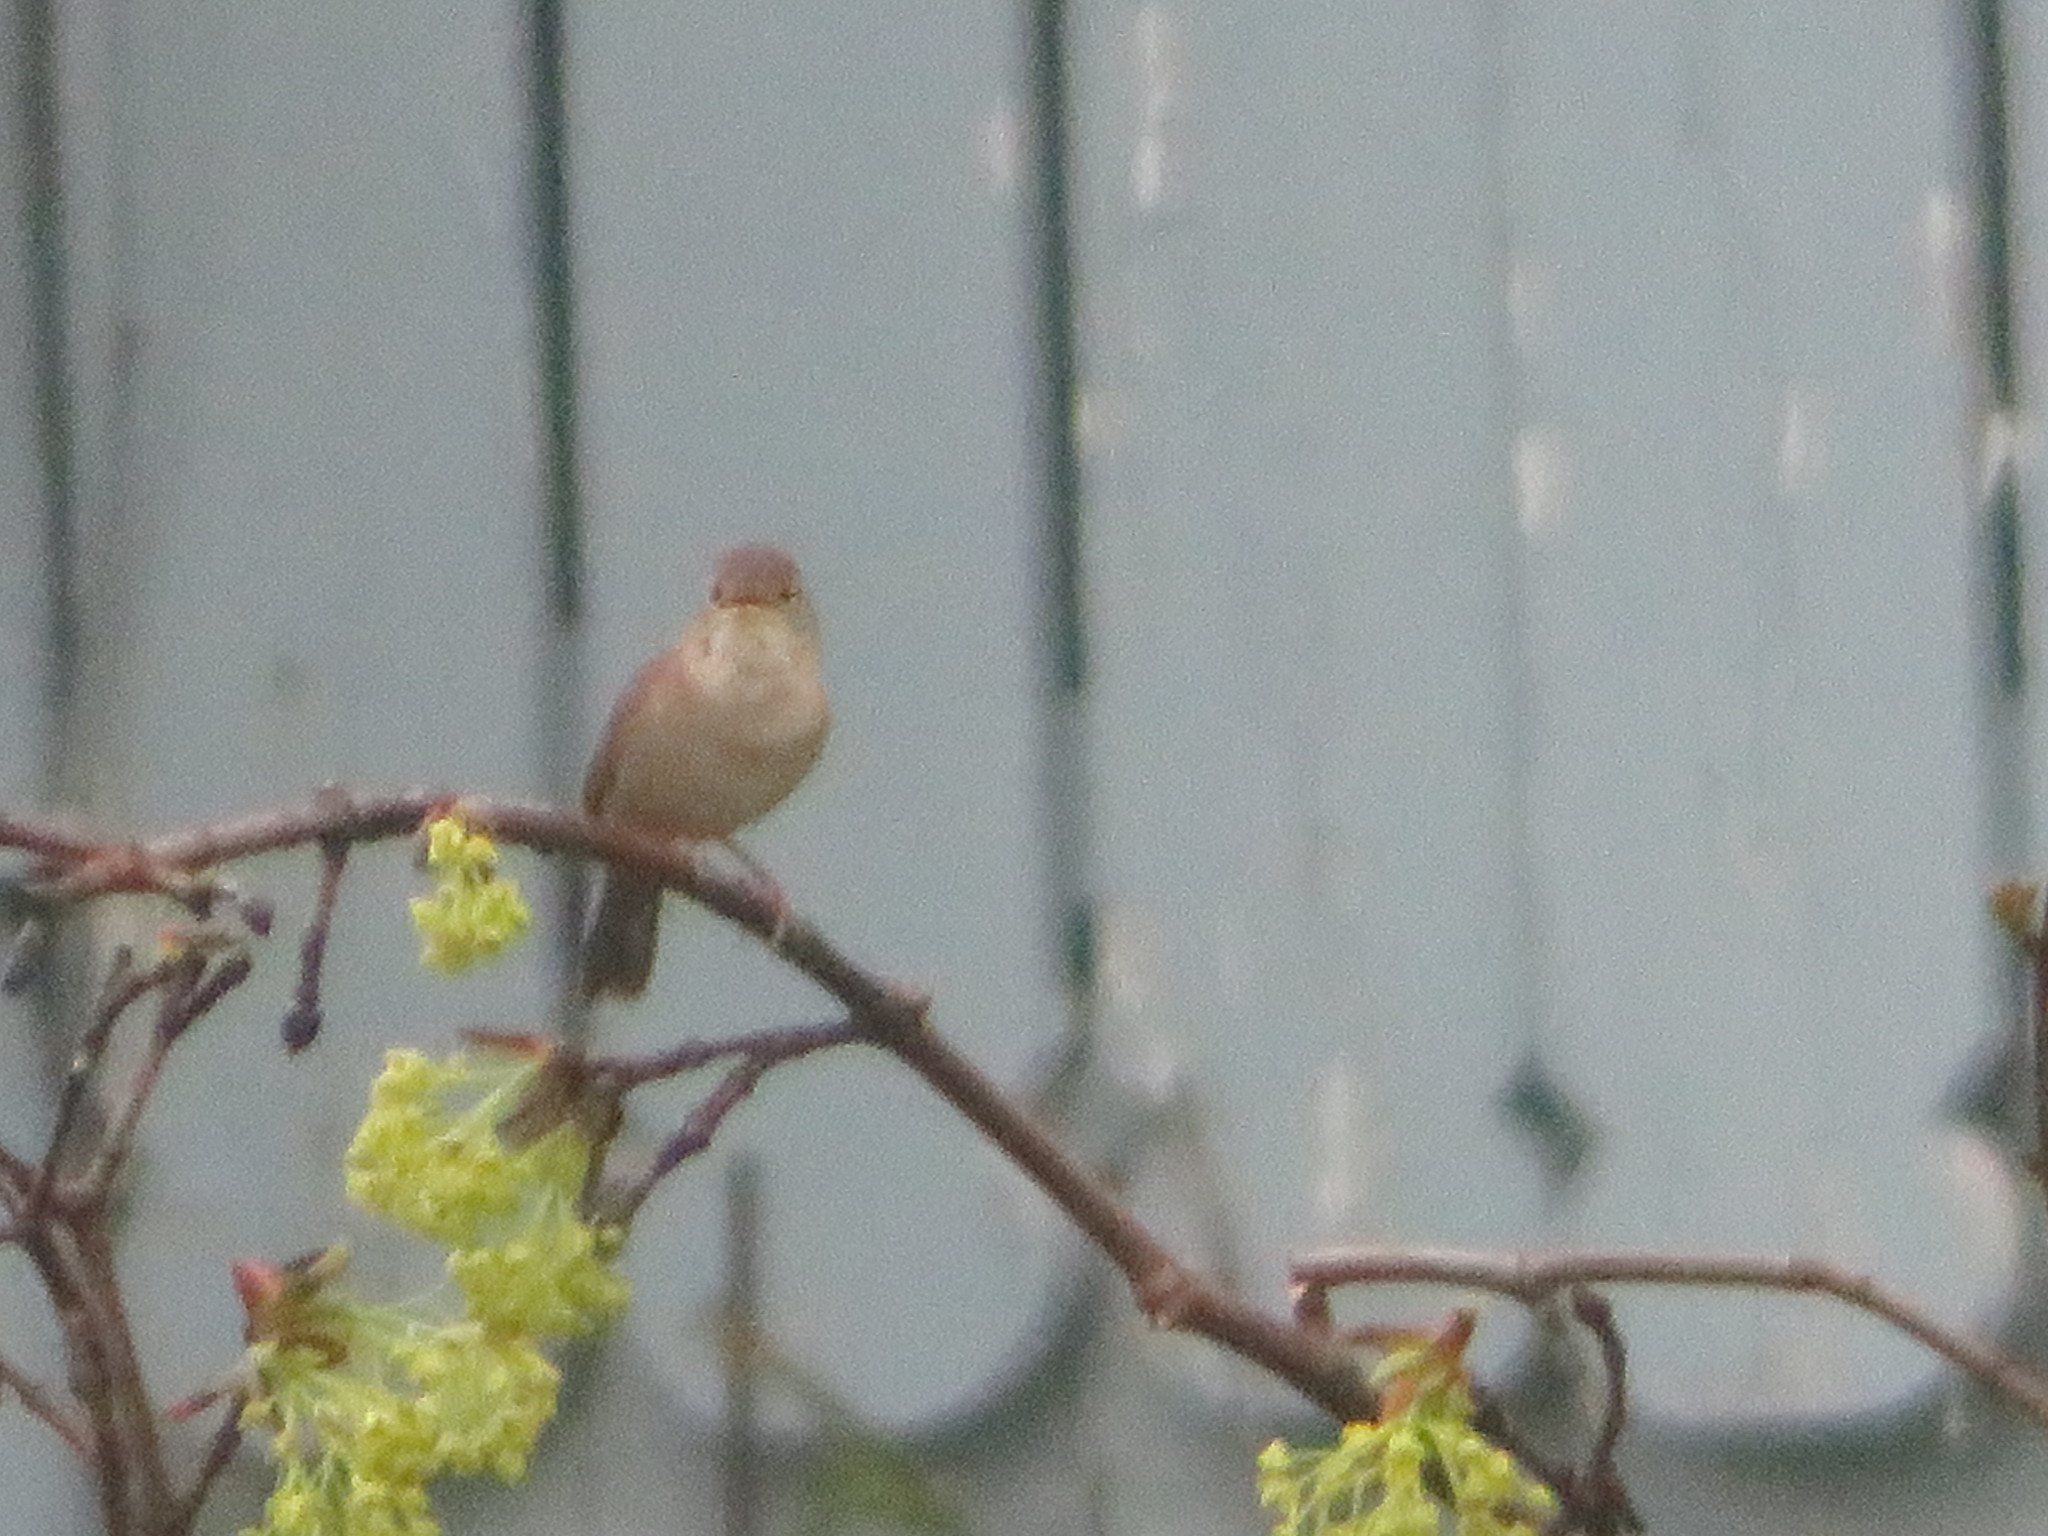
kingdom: Animalia
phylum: Chordata
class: Aves
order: Passeriformes
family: Troglodytidae
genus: Troglodytes
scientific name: Troglodytes aedon
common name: House wren
